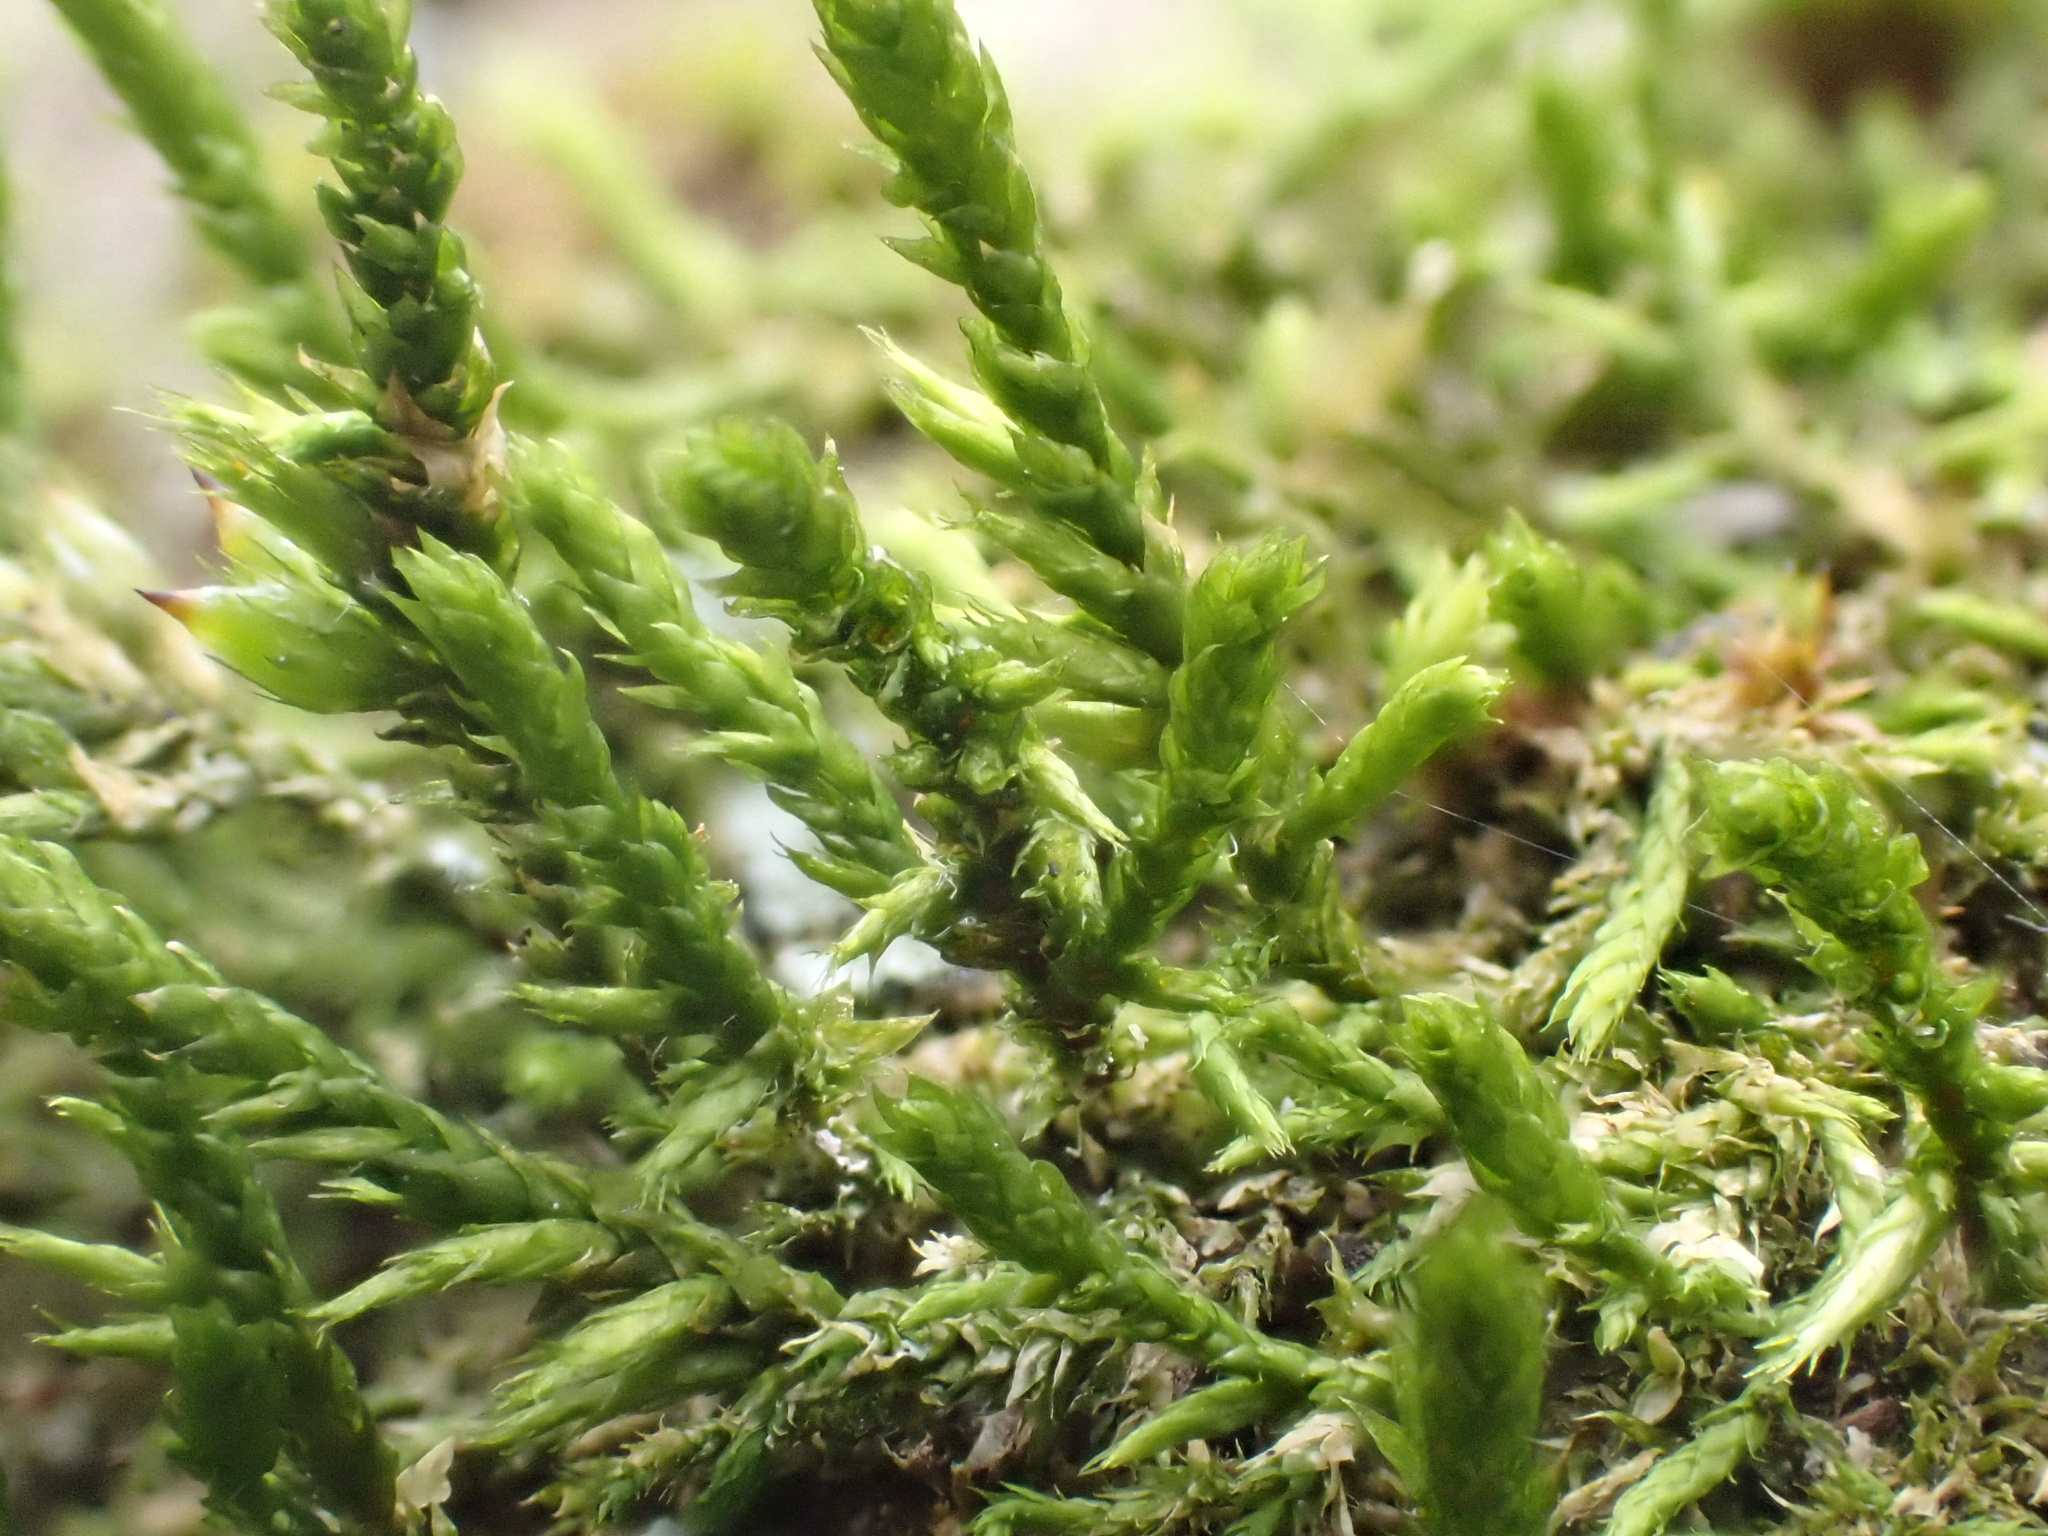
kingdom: Plantae
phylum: Bryophyta
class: Bryopsida
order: Hypnales
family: Cryphaeaceae
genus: Cryphaea
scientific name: Cryphaea heteromalla
